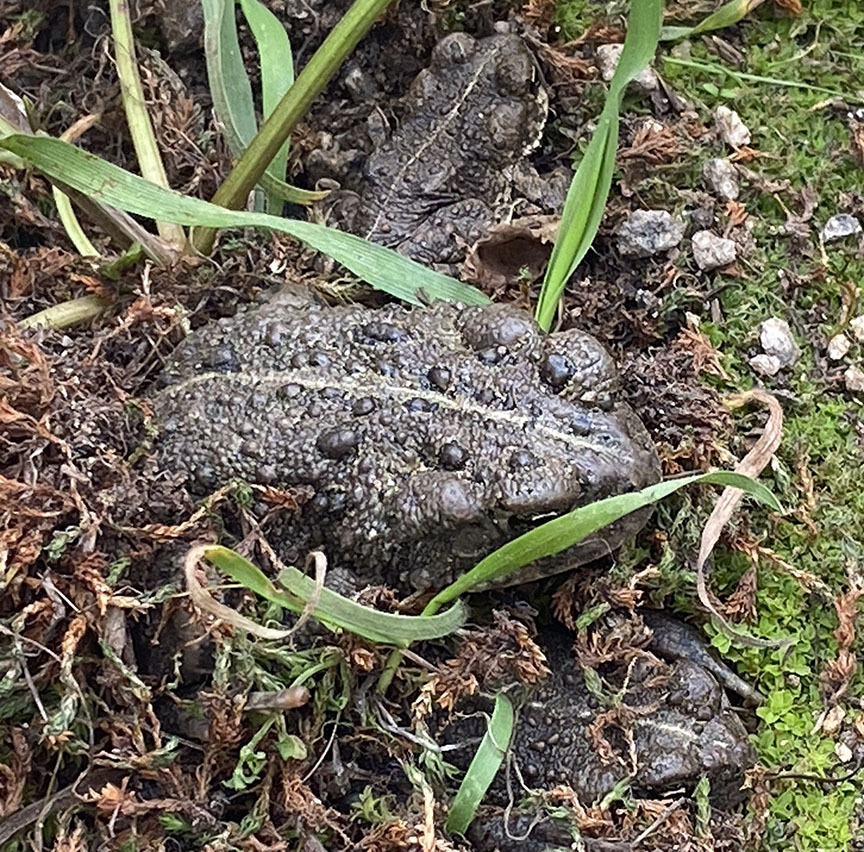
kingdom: Animalia
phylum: Chordata
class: Amphibia
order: Anura
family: Bufonidae
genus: Anaxyrus
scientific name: Anaxyrus boreas
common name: Western toad
